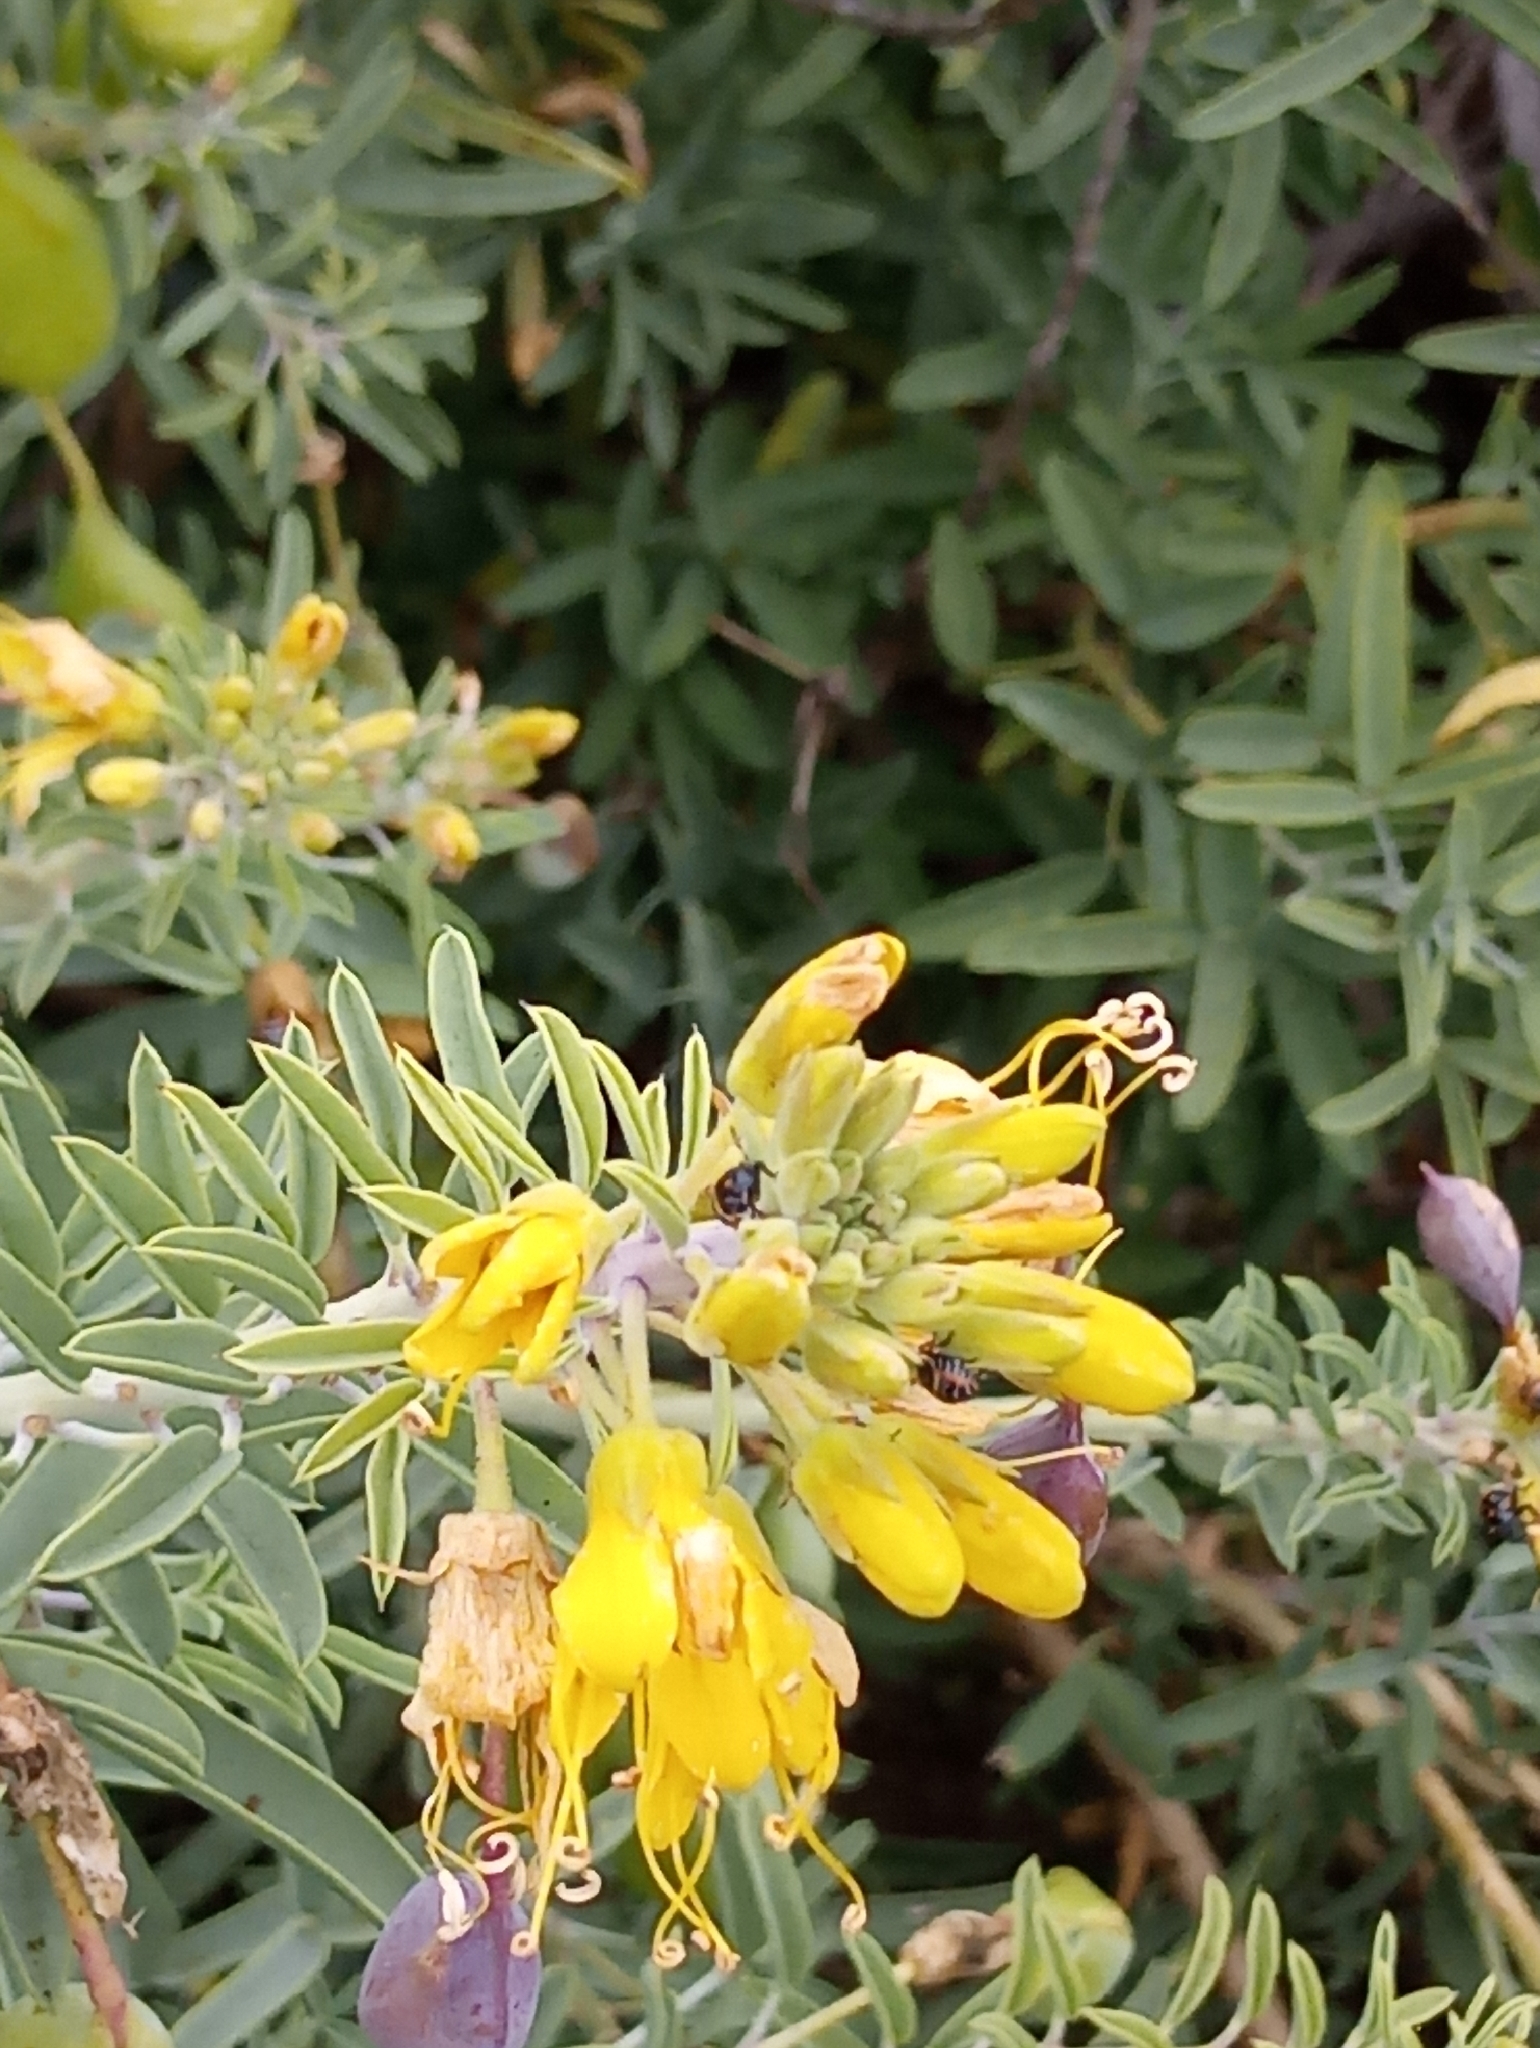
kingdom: Plantae
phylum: Tracheophyta
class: Magnoliopsida
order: Brassicales
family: Cleomaceae
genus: Cleomella
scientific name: Cleomella arborea
